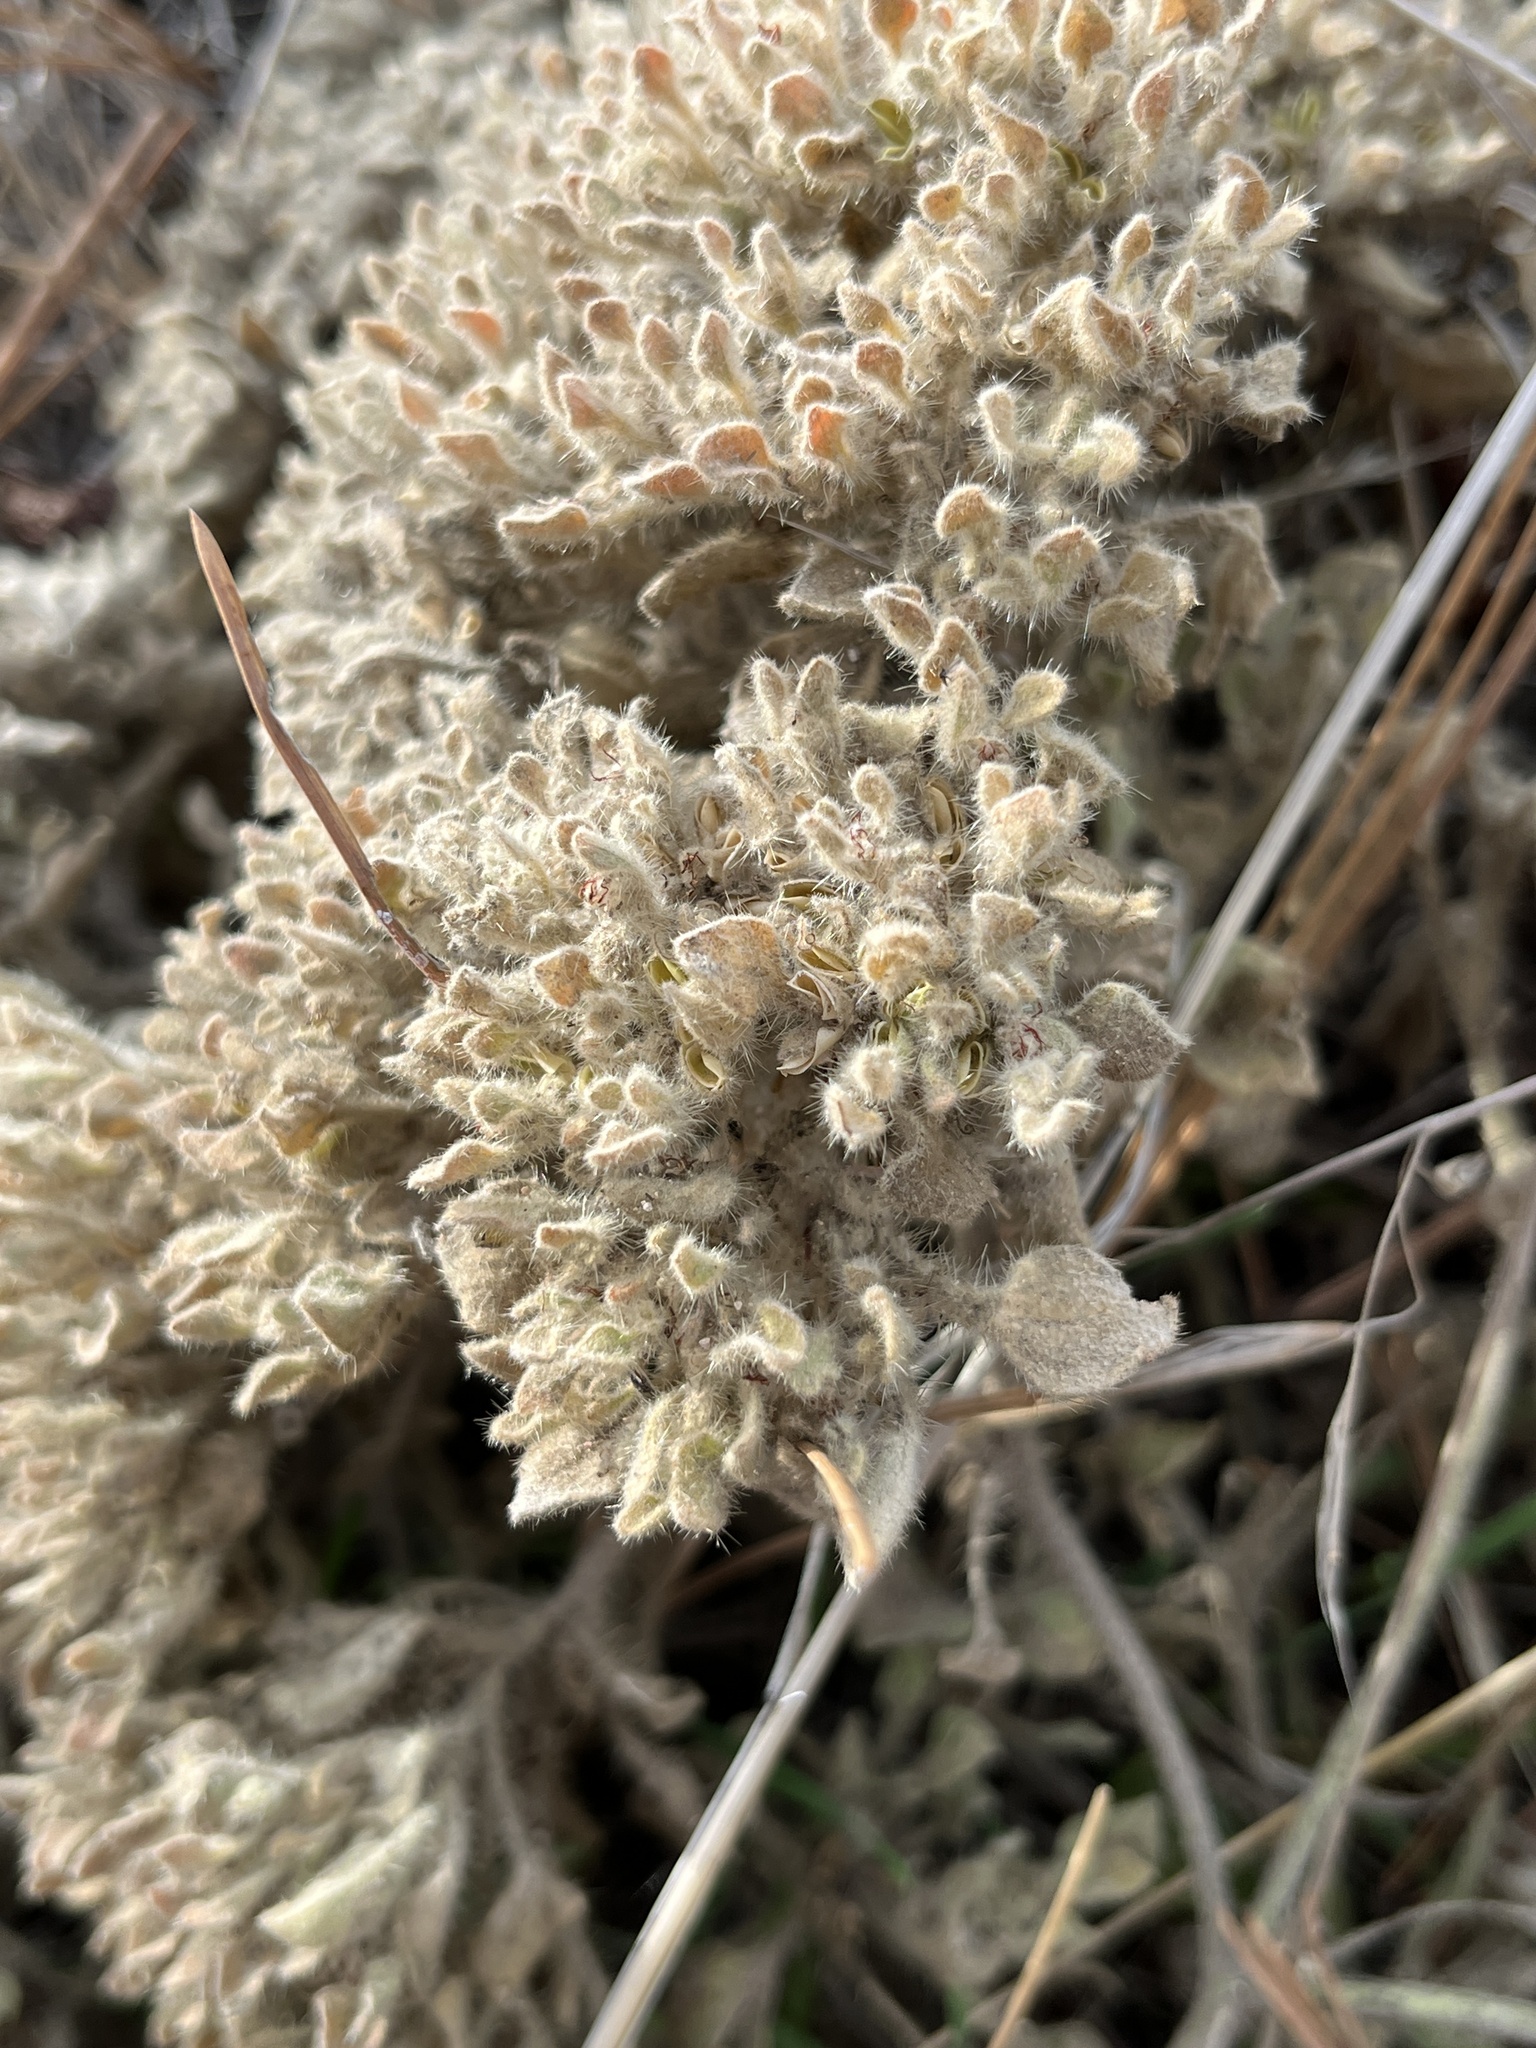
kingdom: Plantae
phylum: Tracheophyta
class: Magnoliopsida
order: Malpighiales
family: Euphorbiaceae
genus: Croton
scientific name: Croton setiger
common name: Dove weed
